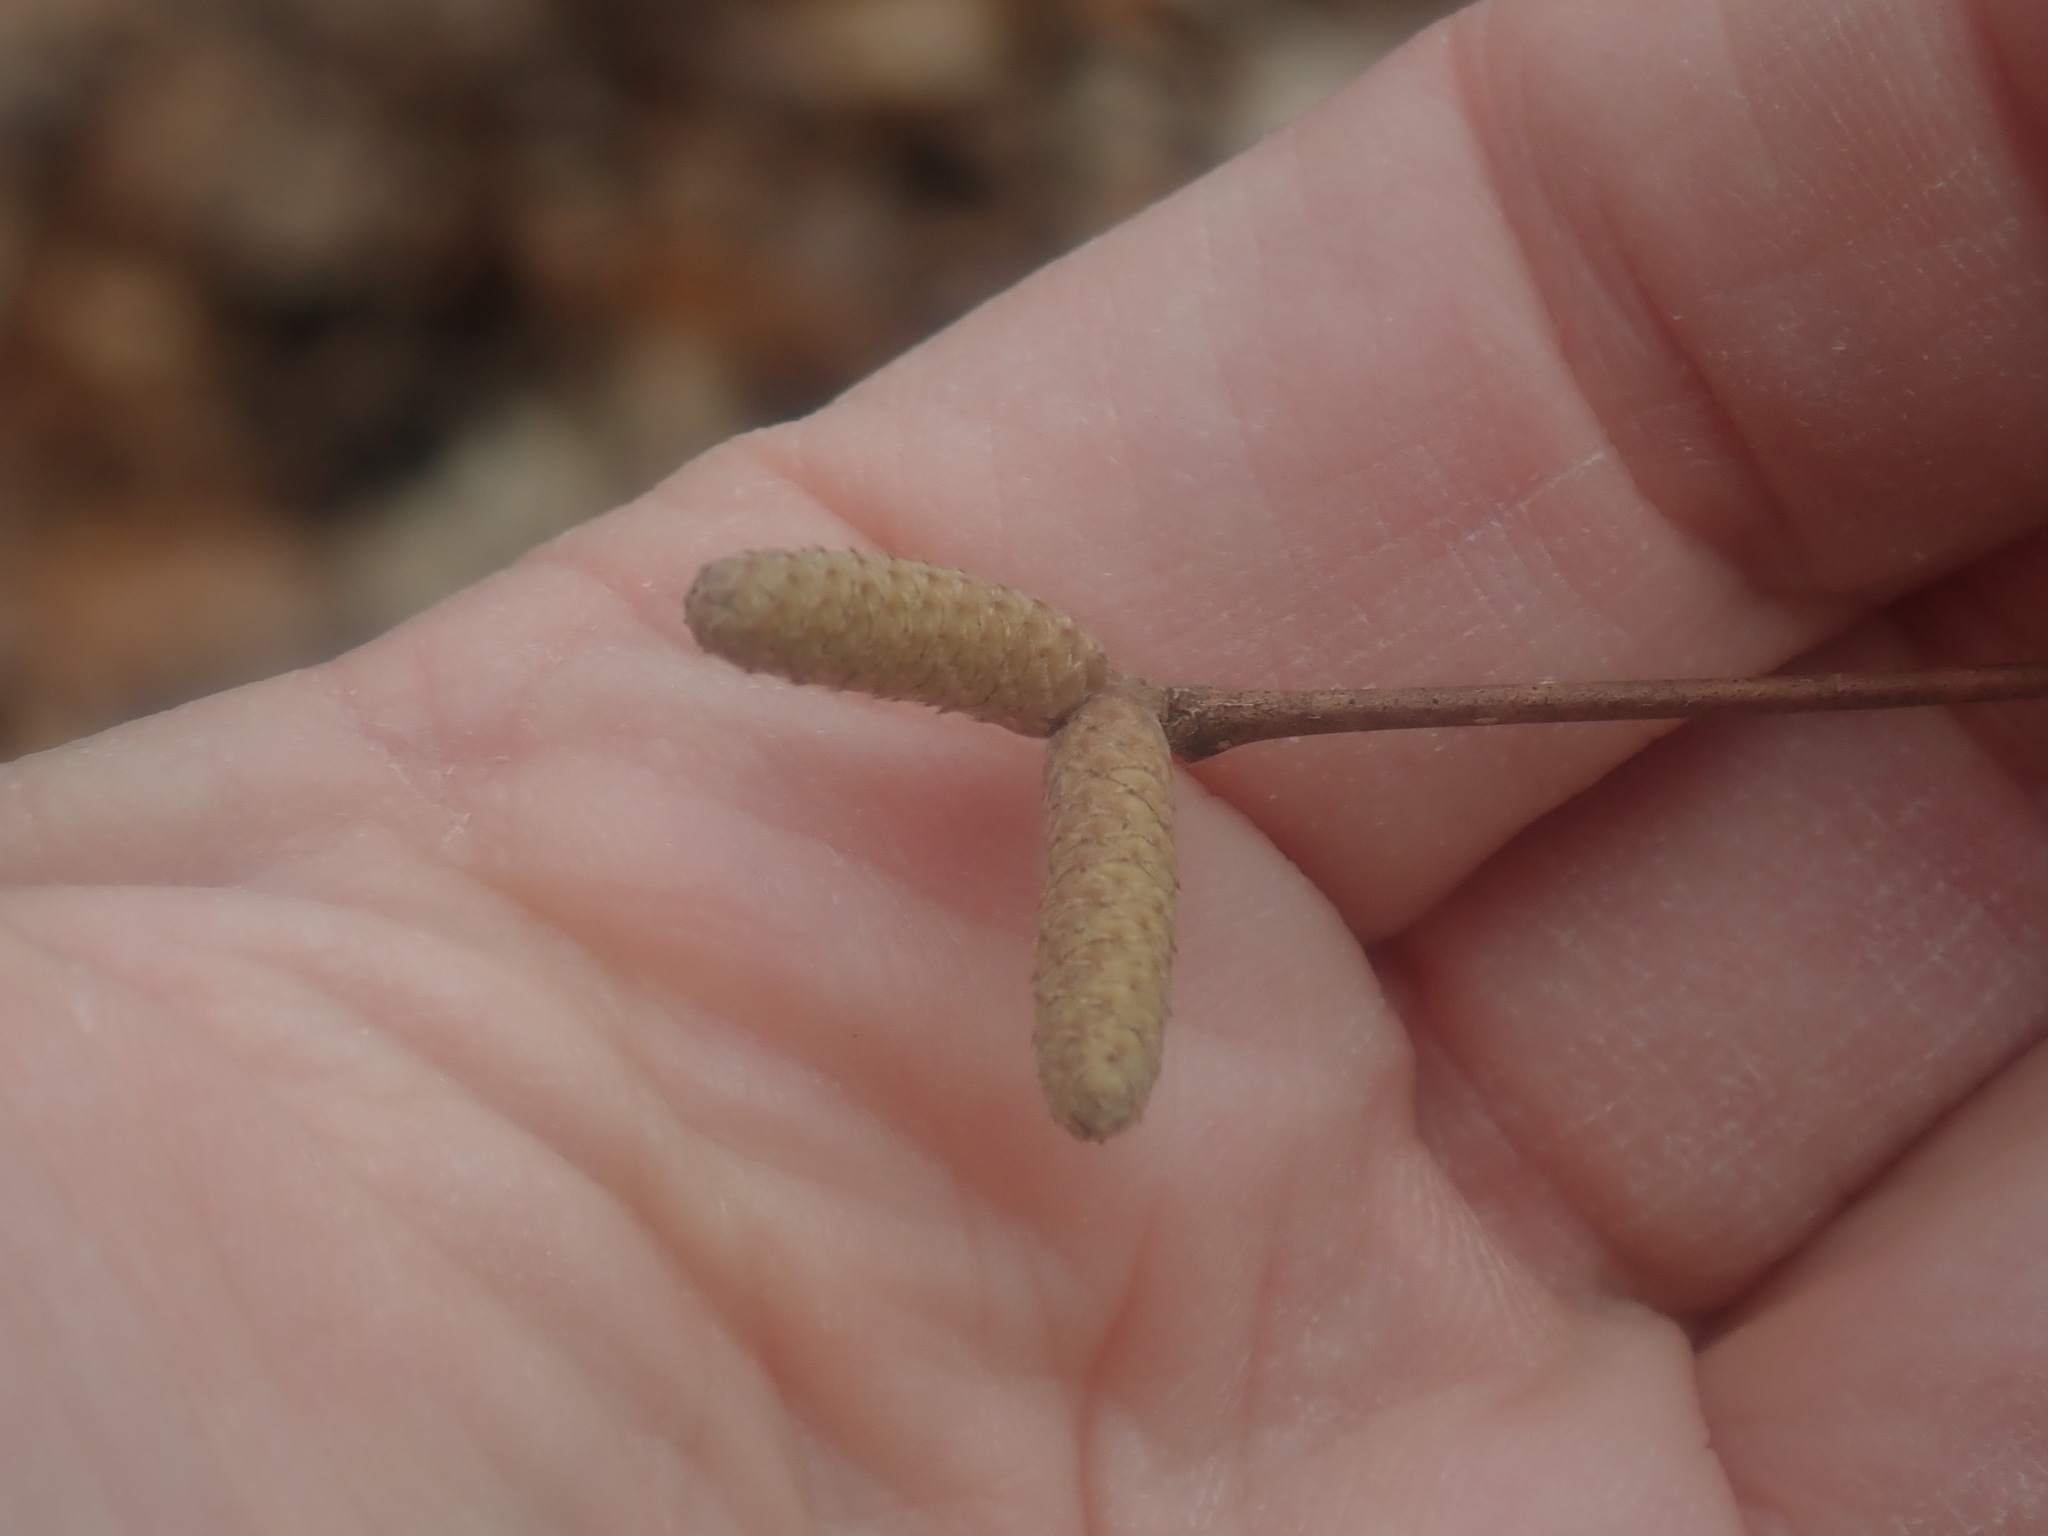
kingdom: Plantae
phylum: Tracheophyta
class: Magnoliopsida
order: Fagales
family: Betulaceae
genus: Corylus
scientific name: Corylus cornuta
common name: Beaked hazel
